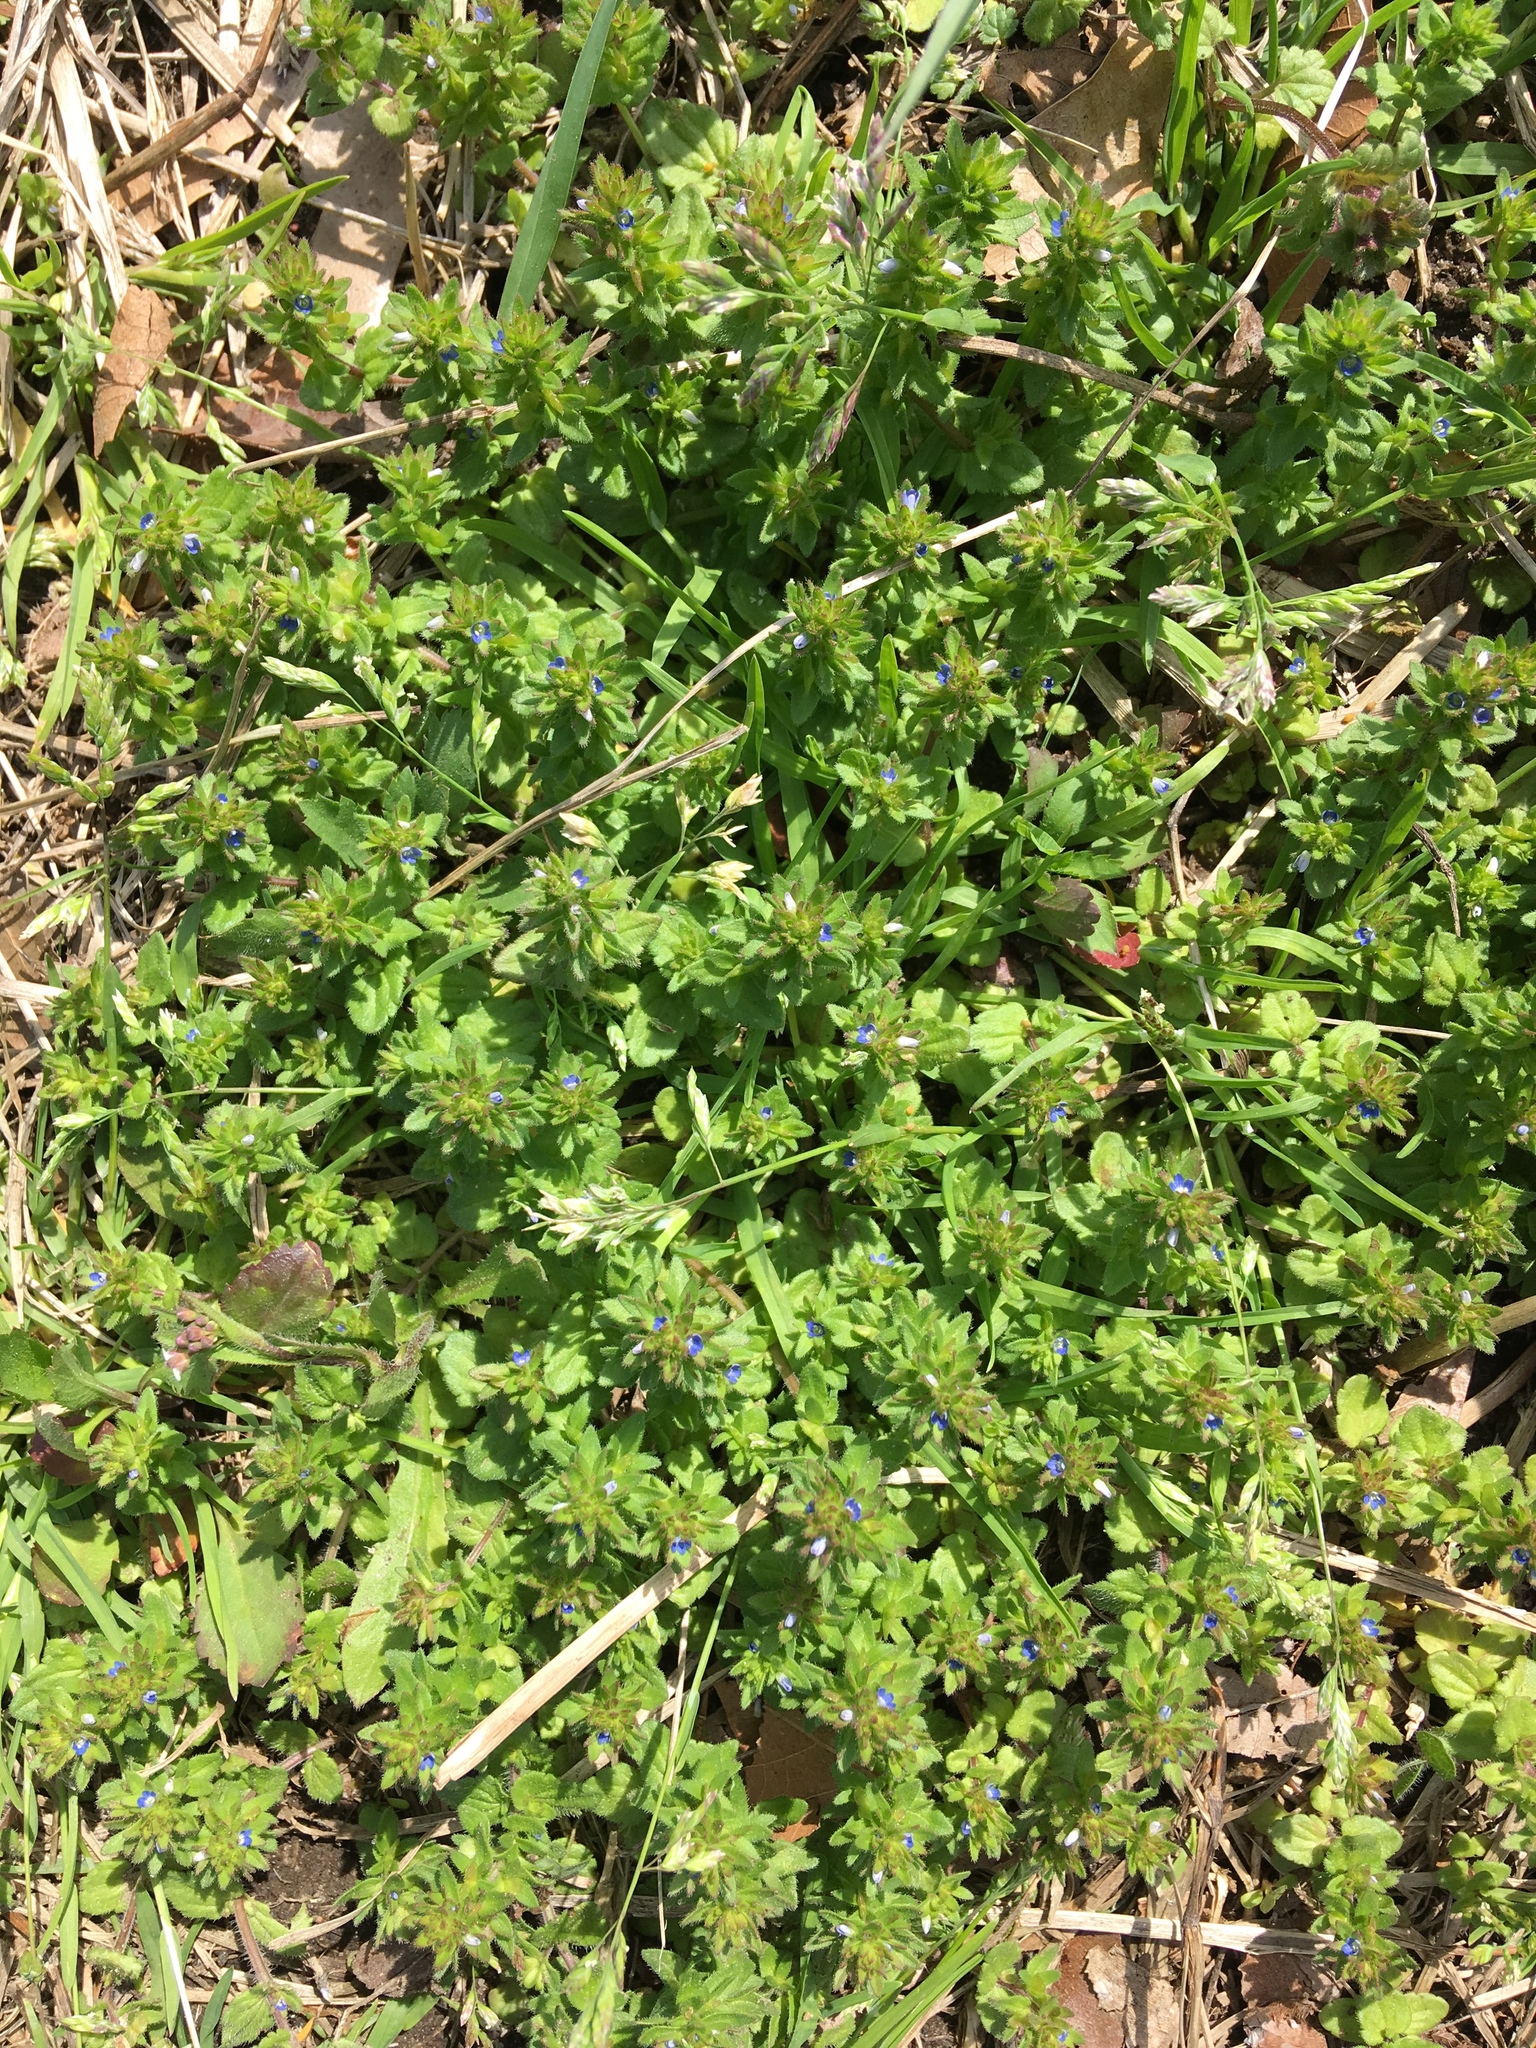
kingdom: Plantae
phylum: Tracheophyta
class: Magnoliopsida
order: Lamiales
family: Plantaginaceae
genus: Veronica
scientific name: Veronica arvensis
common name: Corn speedwell
